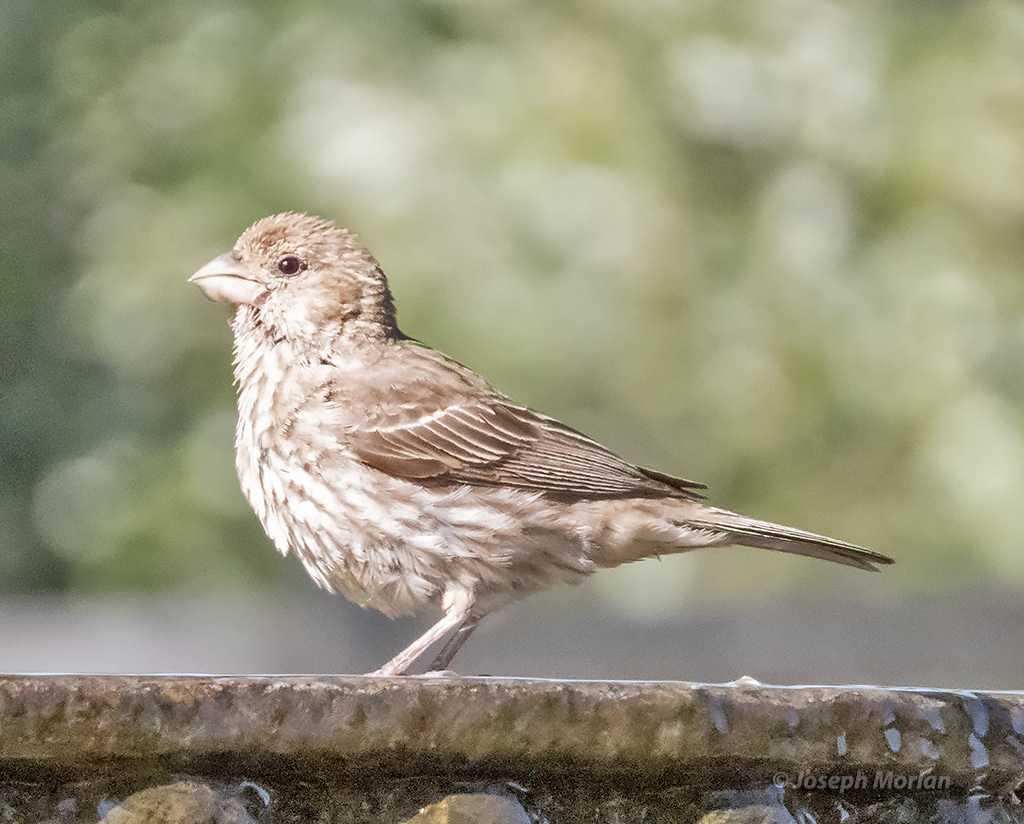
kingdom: Animalia
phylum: Chordata
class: Aves
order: Passeriformes
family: Fringillidae
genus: Haemorhous
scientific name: Haemorhous mexicanus
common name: House finch
